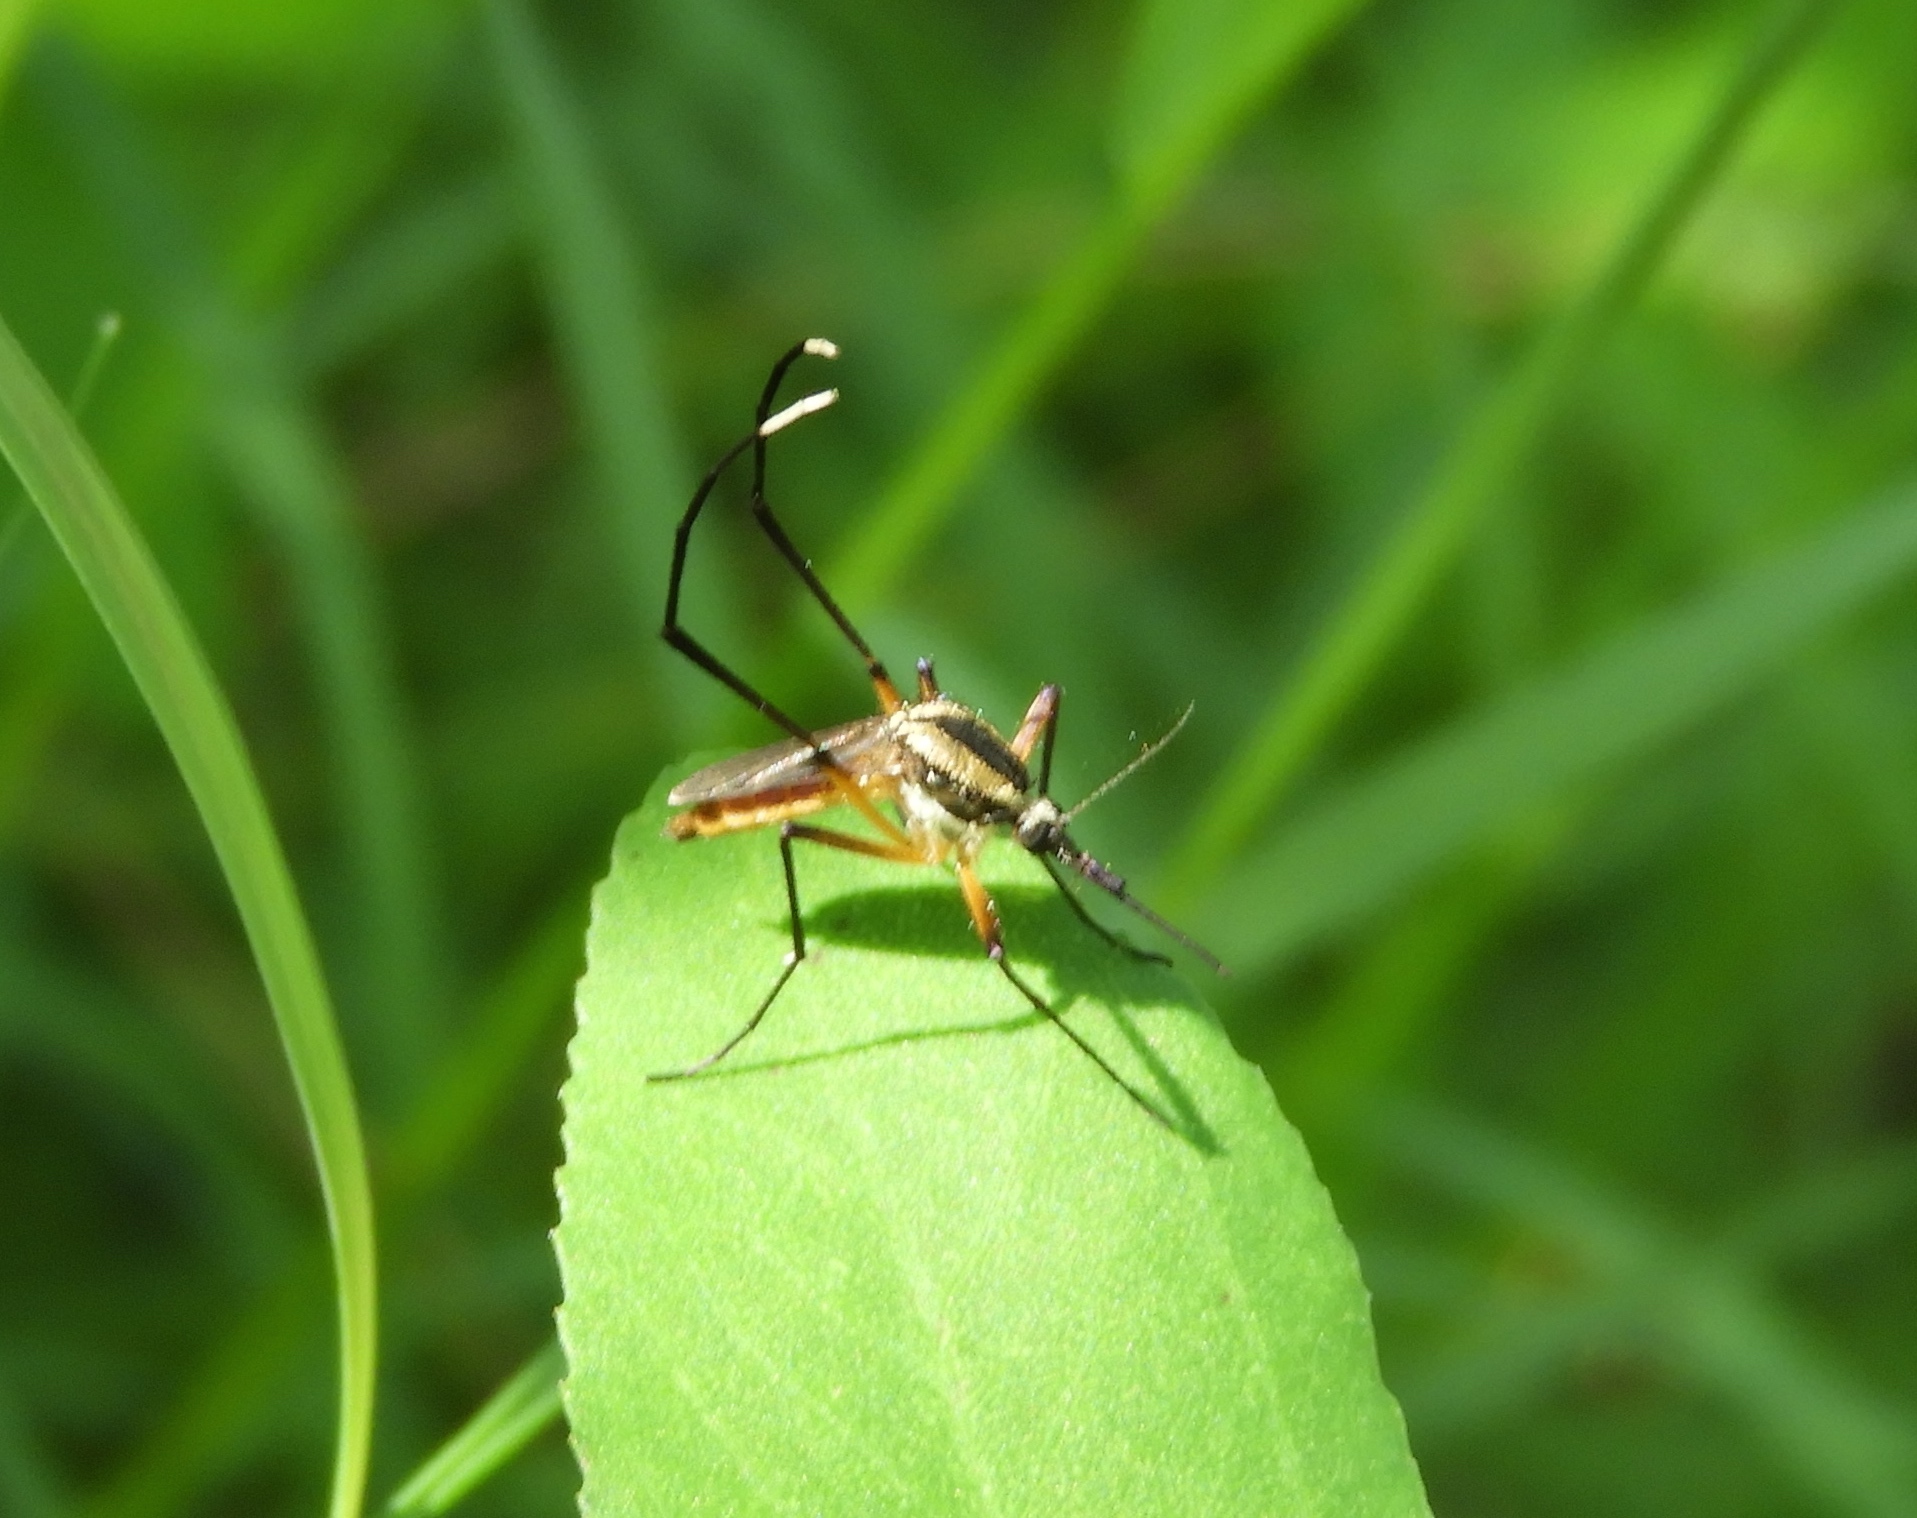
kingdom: Animalia
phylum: Arthropoda
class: Insecta
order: Diptera
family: Culicidae
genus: Janthinosoma
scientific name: Janthinosoma
